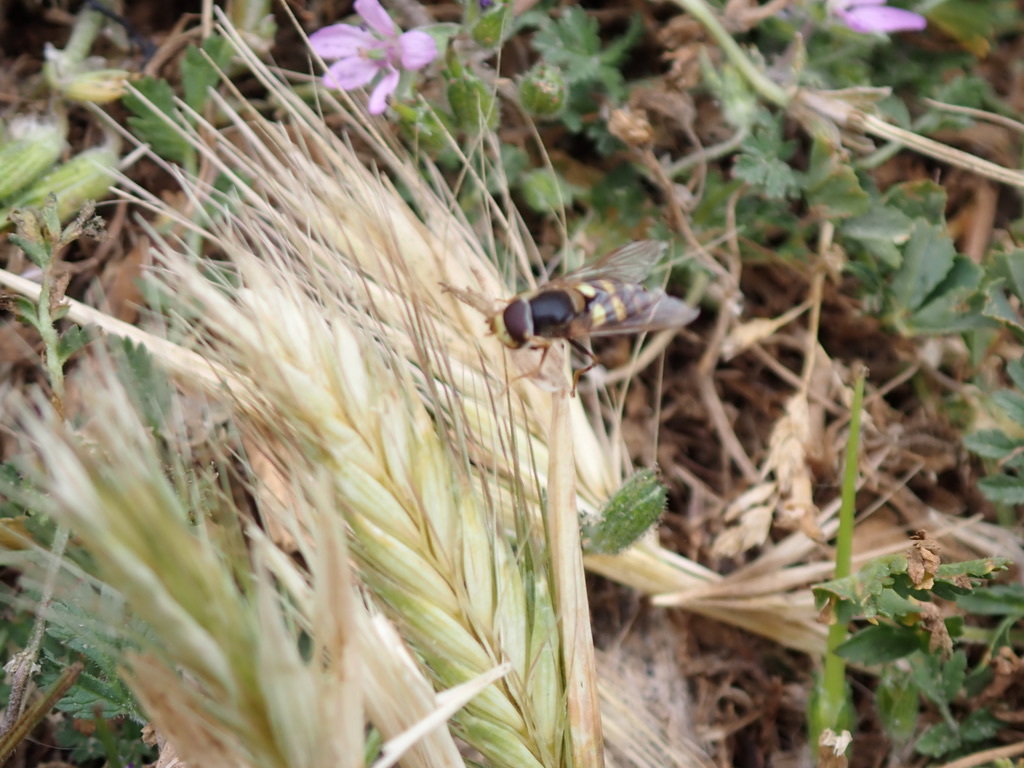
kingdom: Animalia
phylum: Arthropoda
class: Insecta
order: Diptera
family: Syrphidae
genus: Syrphus
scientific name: Syrphus opinator
